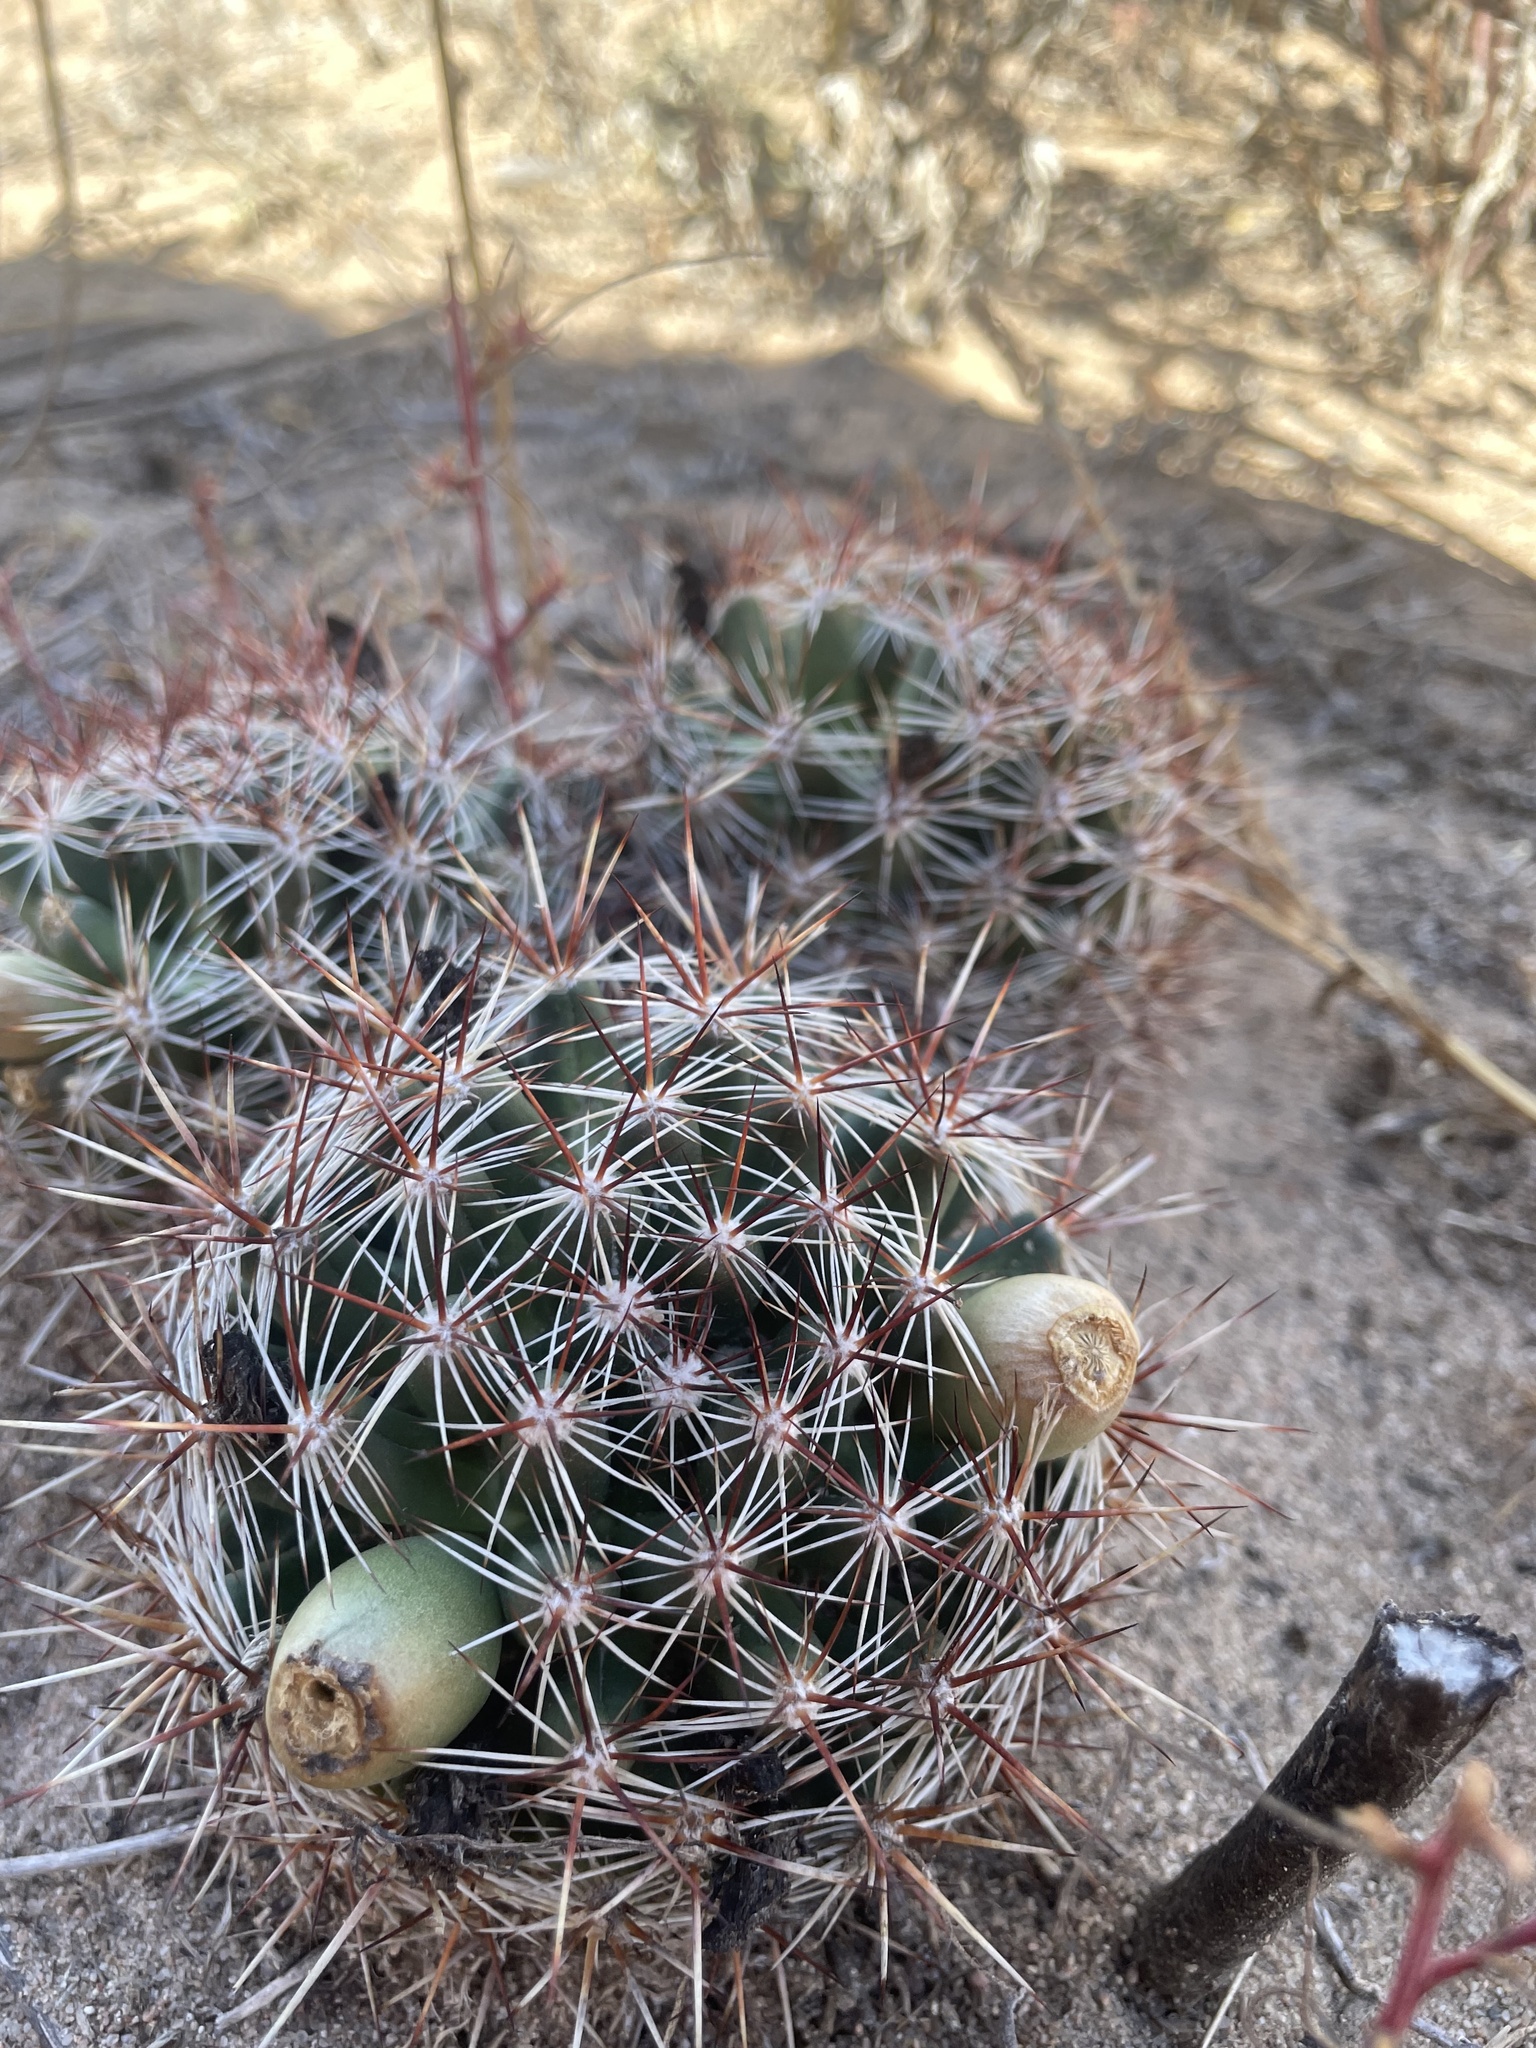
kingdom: Plantae
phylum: Tracheophyta
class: Magnoliopsida
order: Caryophyllales
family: Cactaceae
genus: Pelecyphora
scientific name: Pelecyphora vivipara
